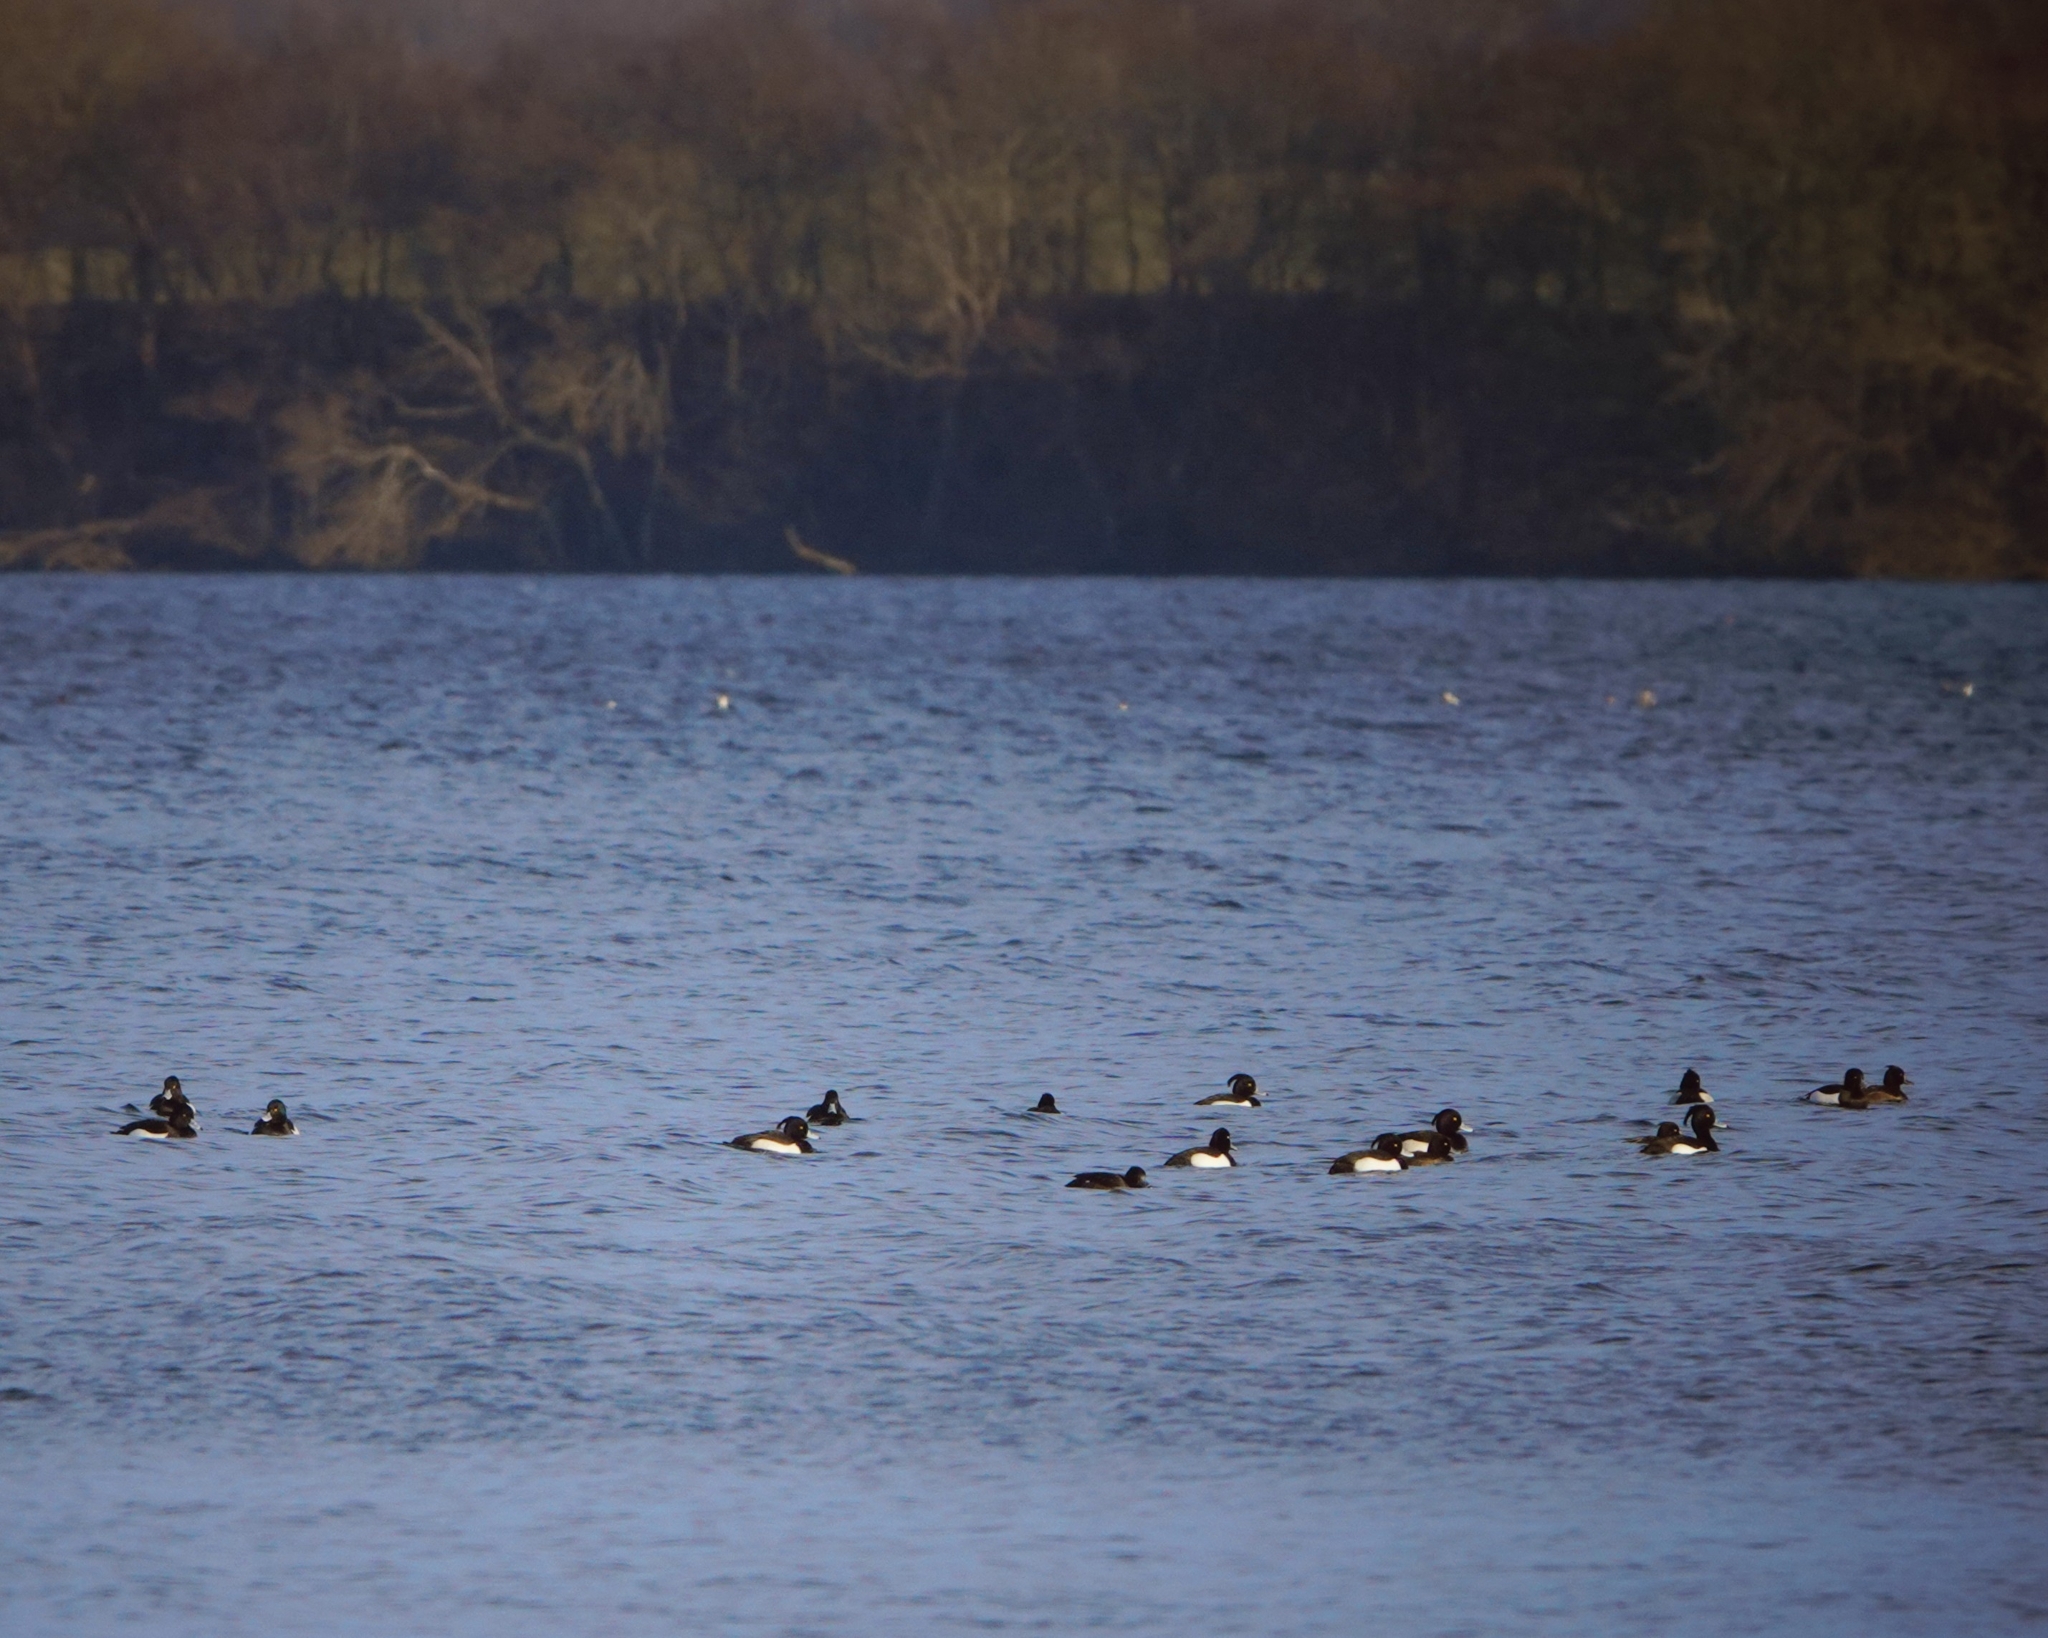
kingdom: Animalia
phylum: Chordata
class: Aves
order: Anseriformes
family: Anatidae
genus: Aythya
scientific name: Aythya fuligula
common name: Tufted duck
